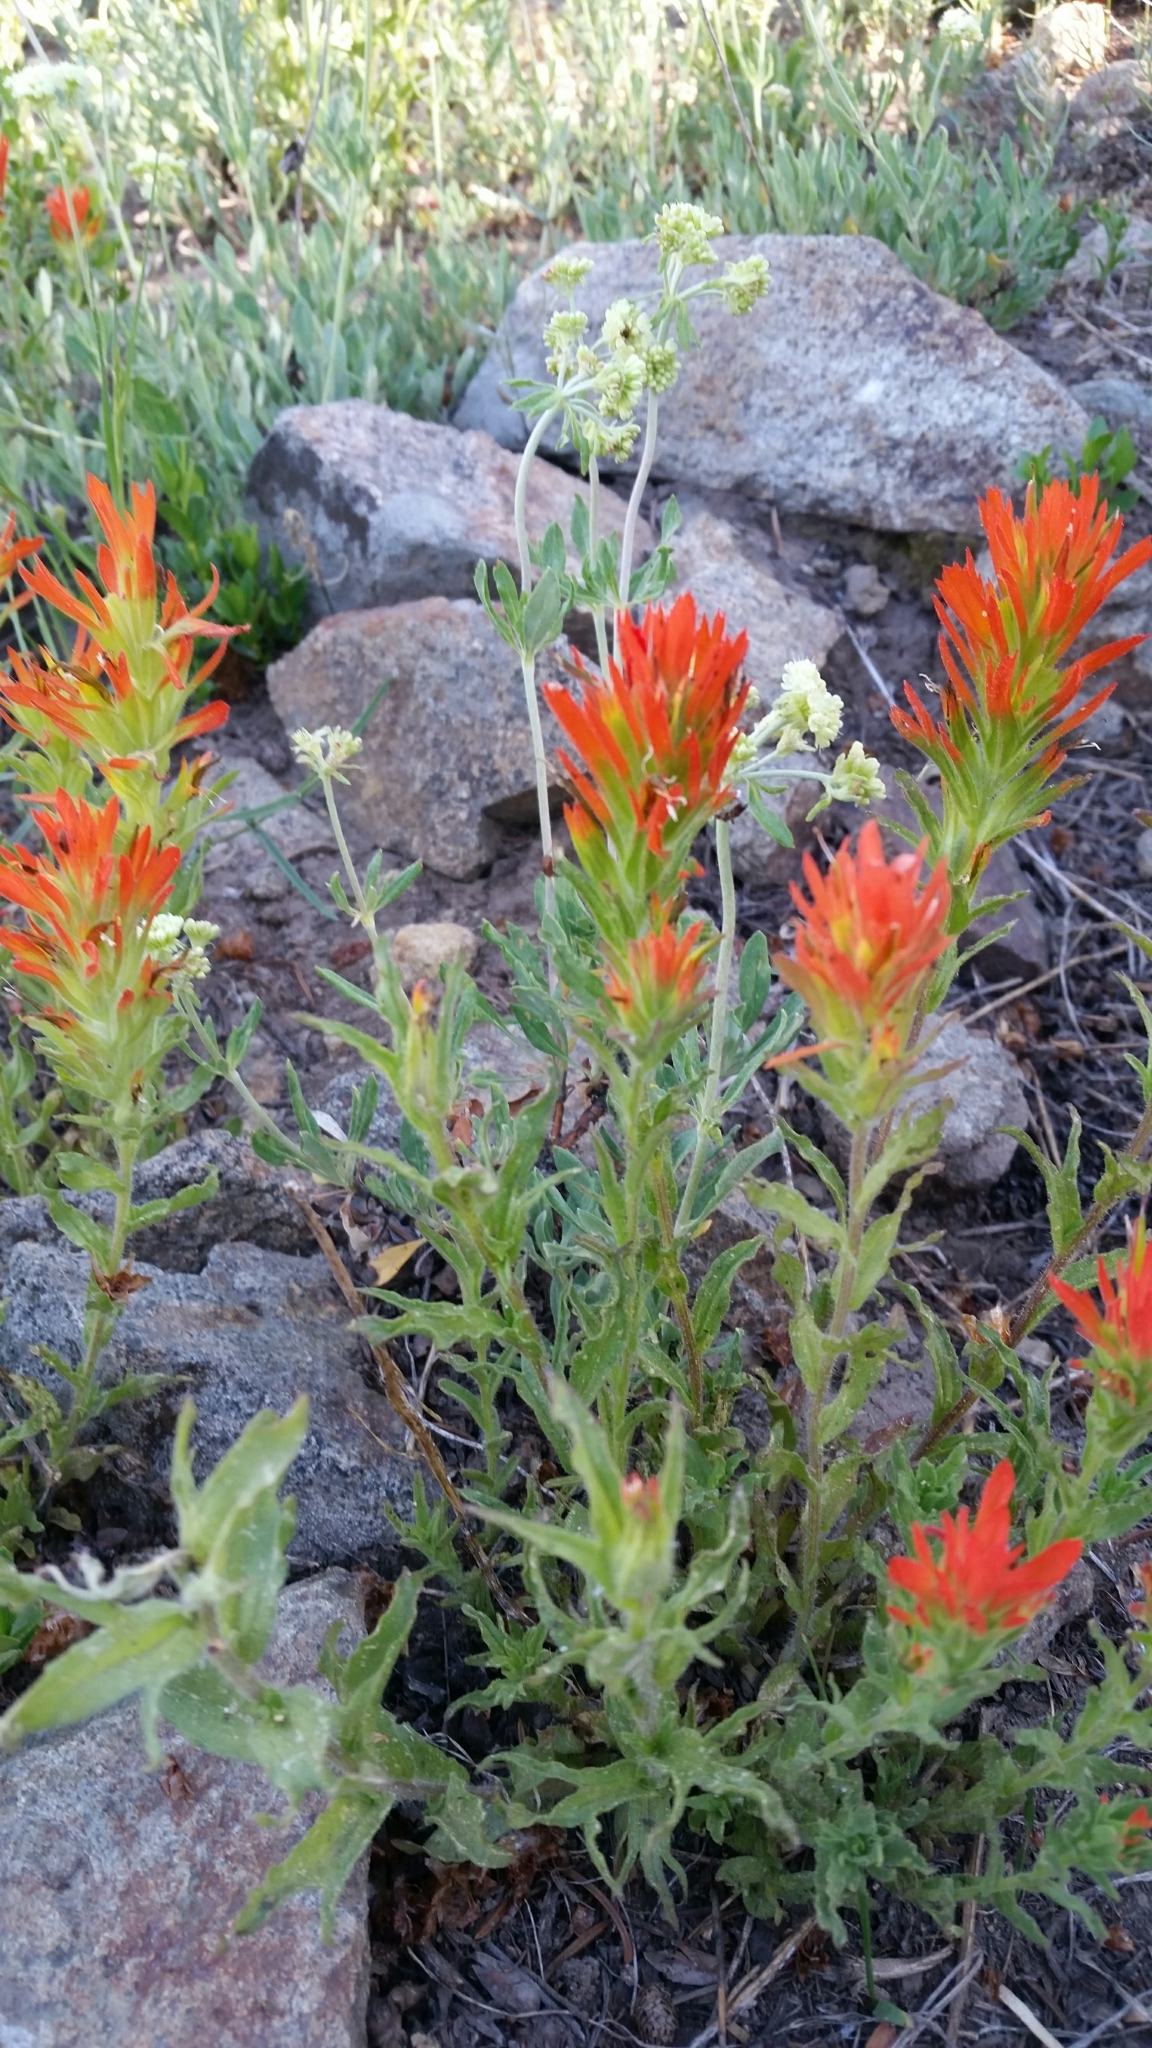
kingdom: Plantae
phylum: Tracheophyta
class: Magnoliopsida
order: Lamiales
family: Orobanchaceae
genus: Castilleja
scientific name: Castilleja applegatei
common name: Wavy-leaf paintbrush
